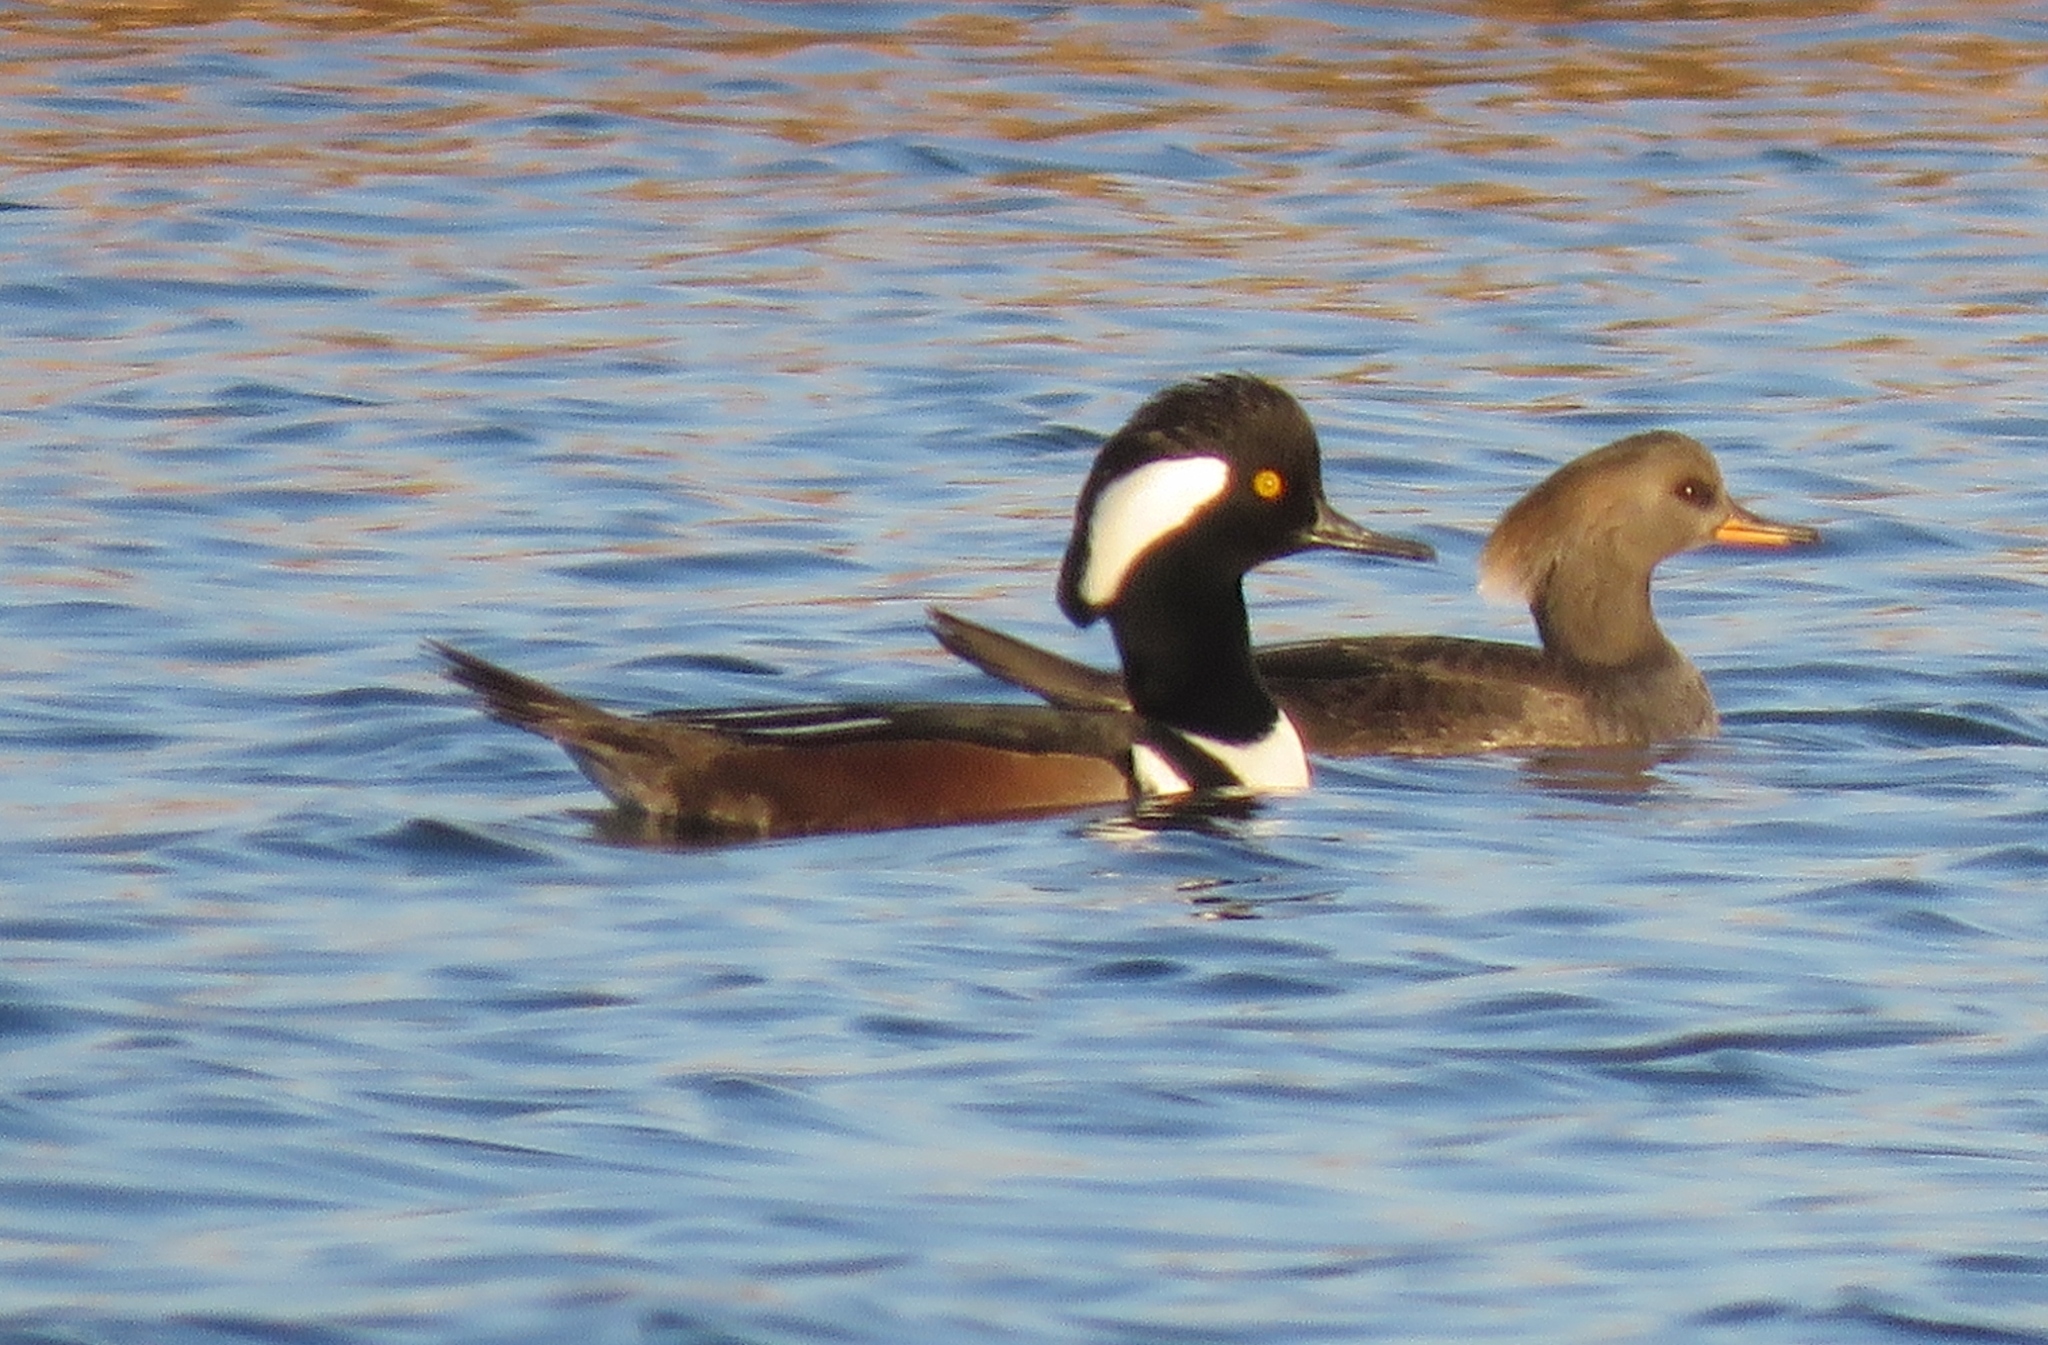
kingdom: Animalia
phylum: Chordata
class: Aves
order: Anseriformes
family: Anatidae
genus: Lophodytes
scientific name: Lophodytes cucullatus
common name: Hooded merganser
